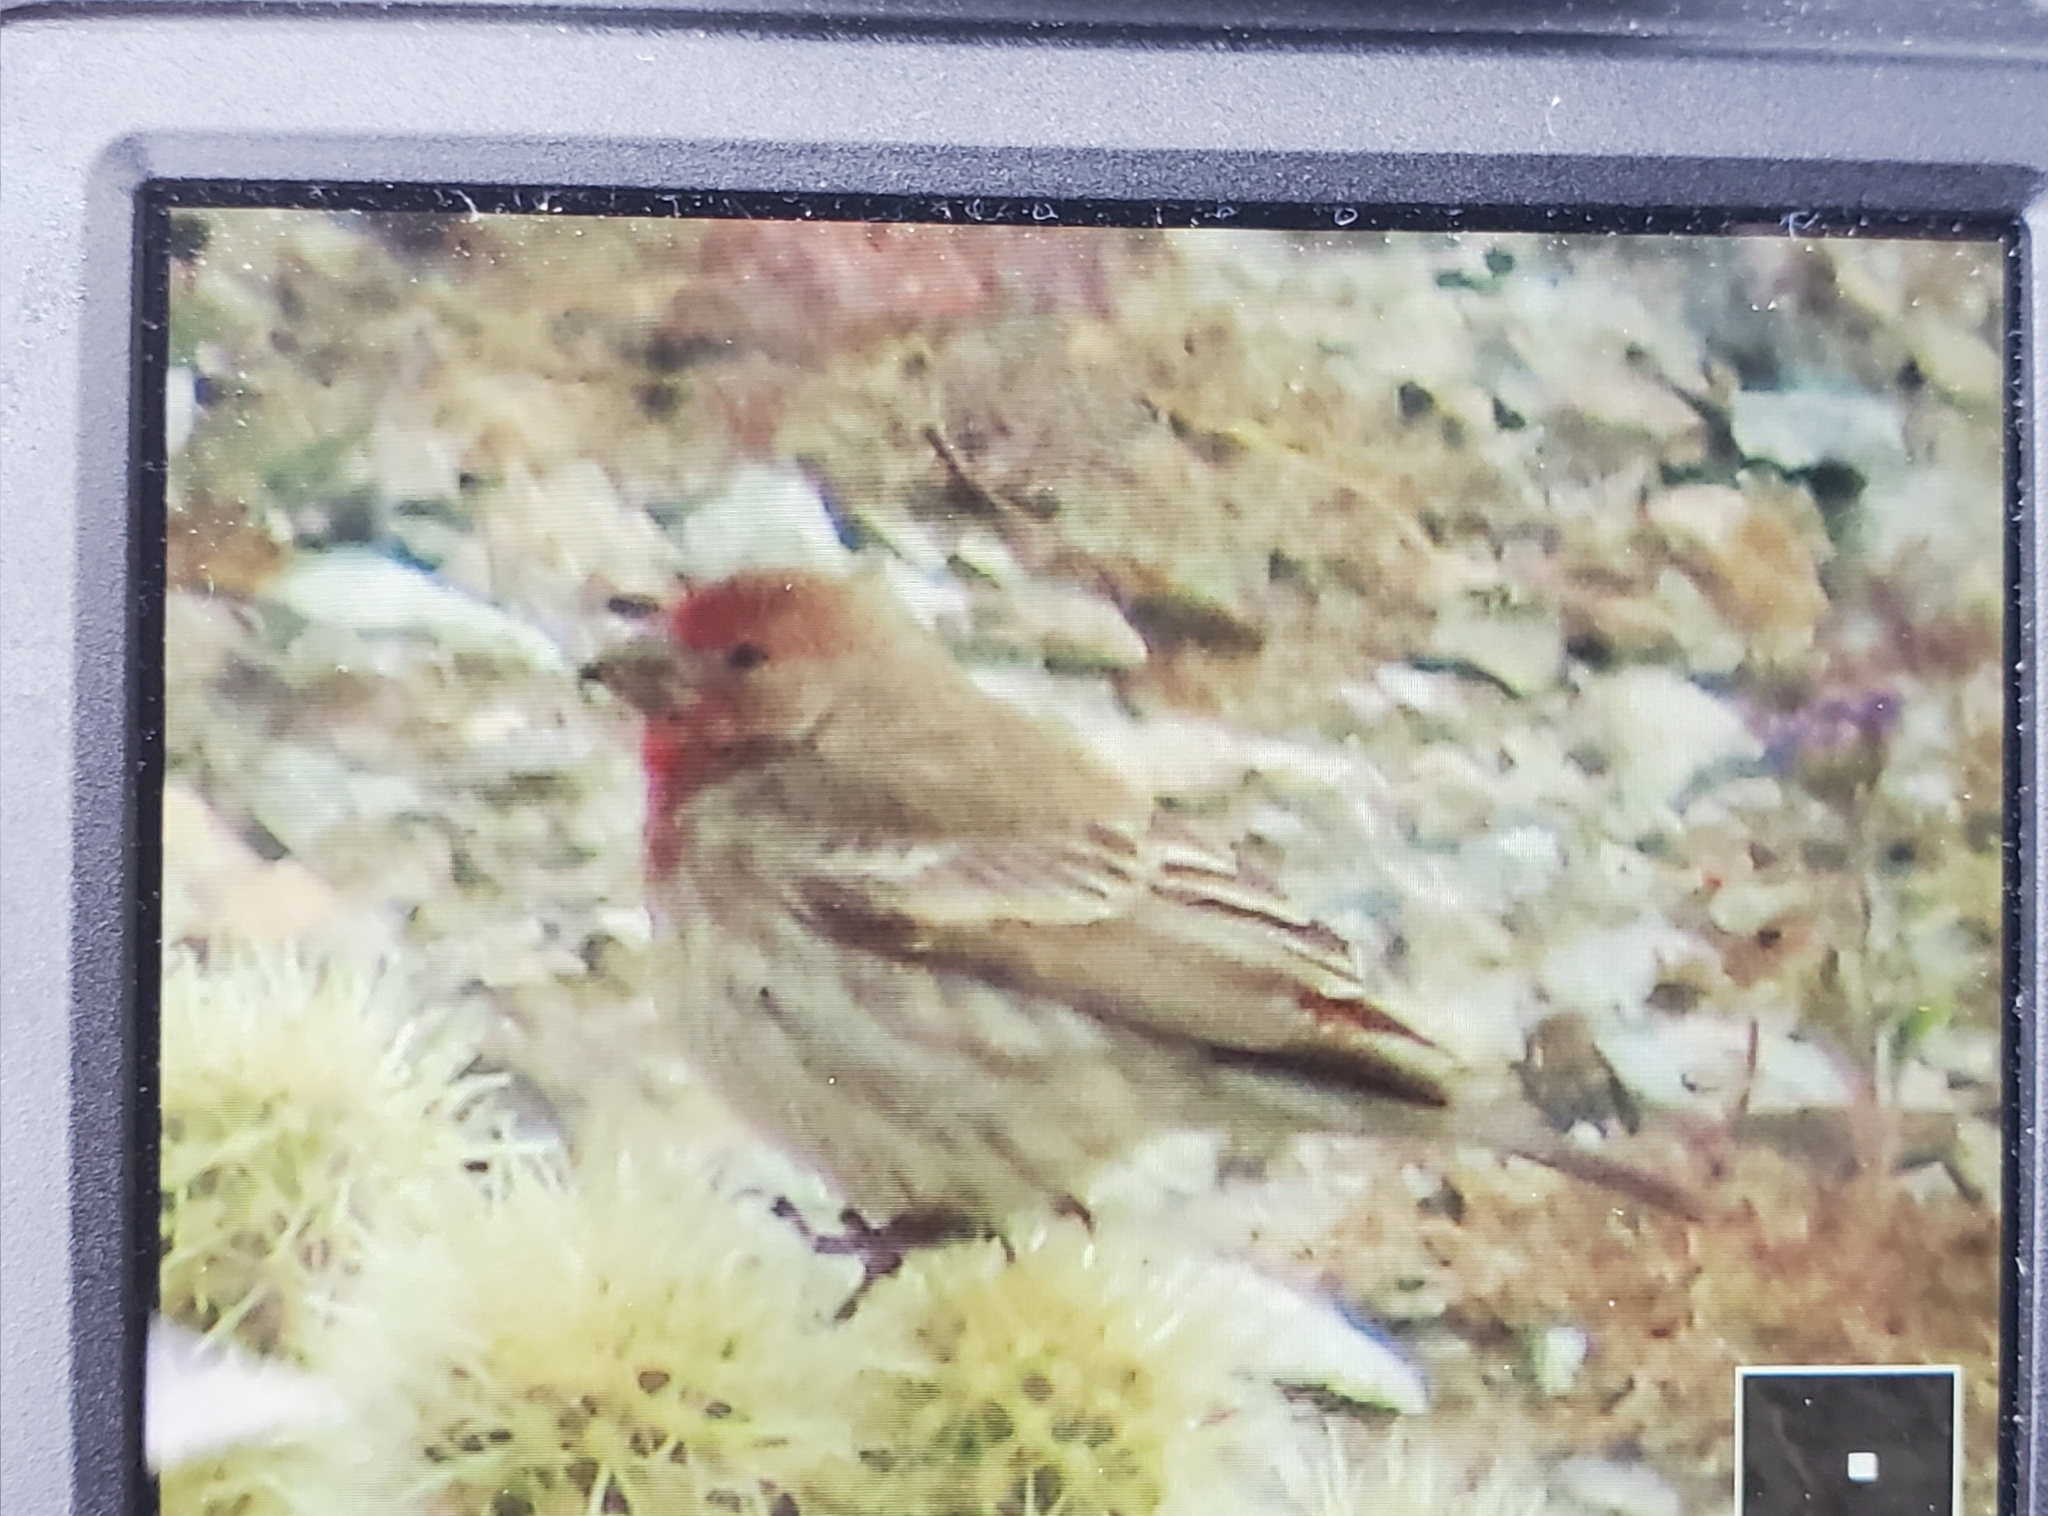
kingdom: Animalia
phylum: Chordata
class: Aves
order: Passeriformes
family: Fringillidae
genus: Haemorhous
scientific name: Haemorhous mexicanus
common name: House finch
